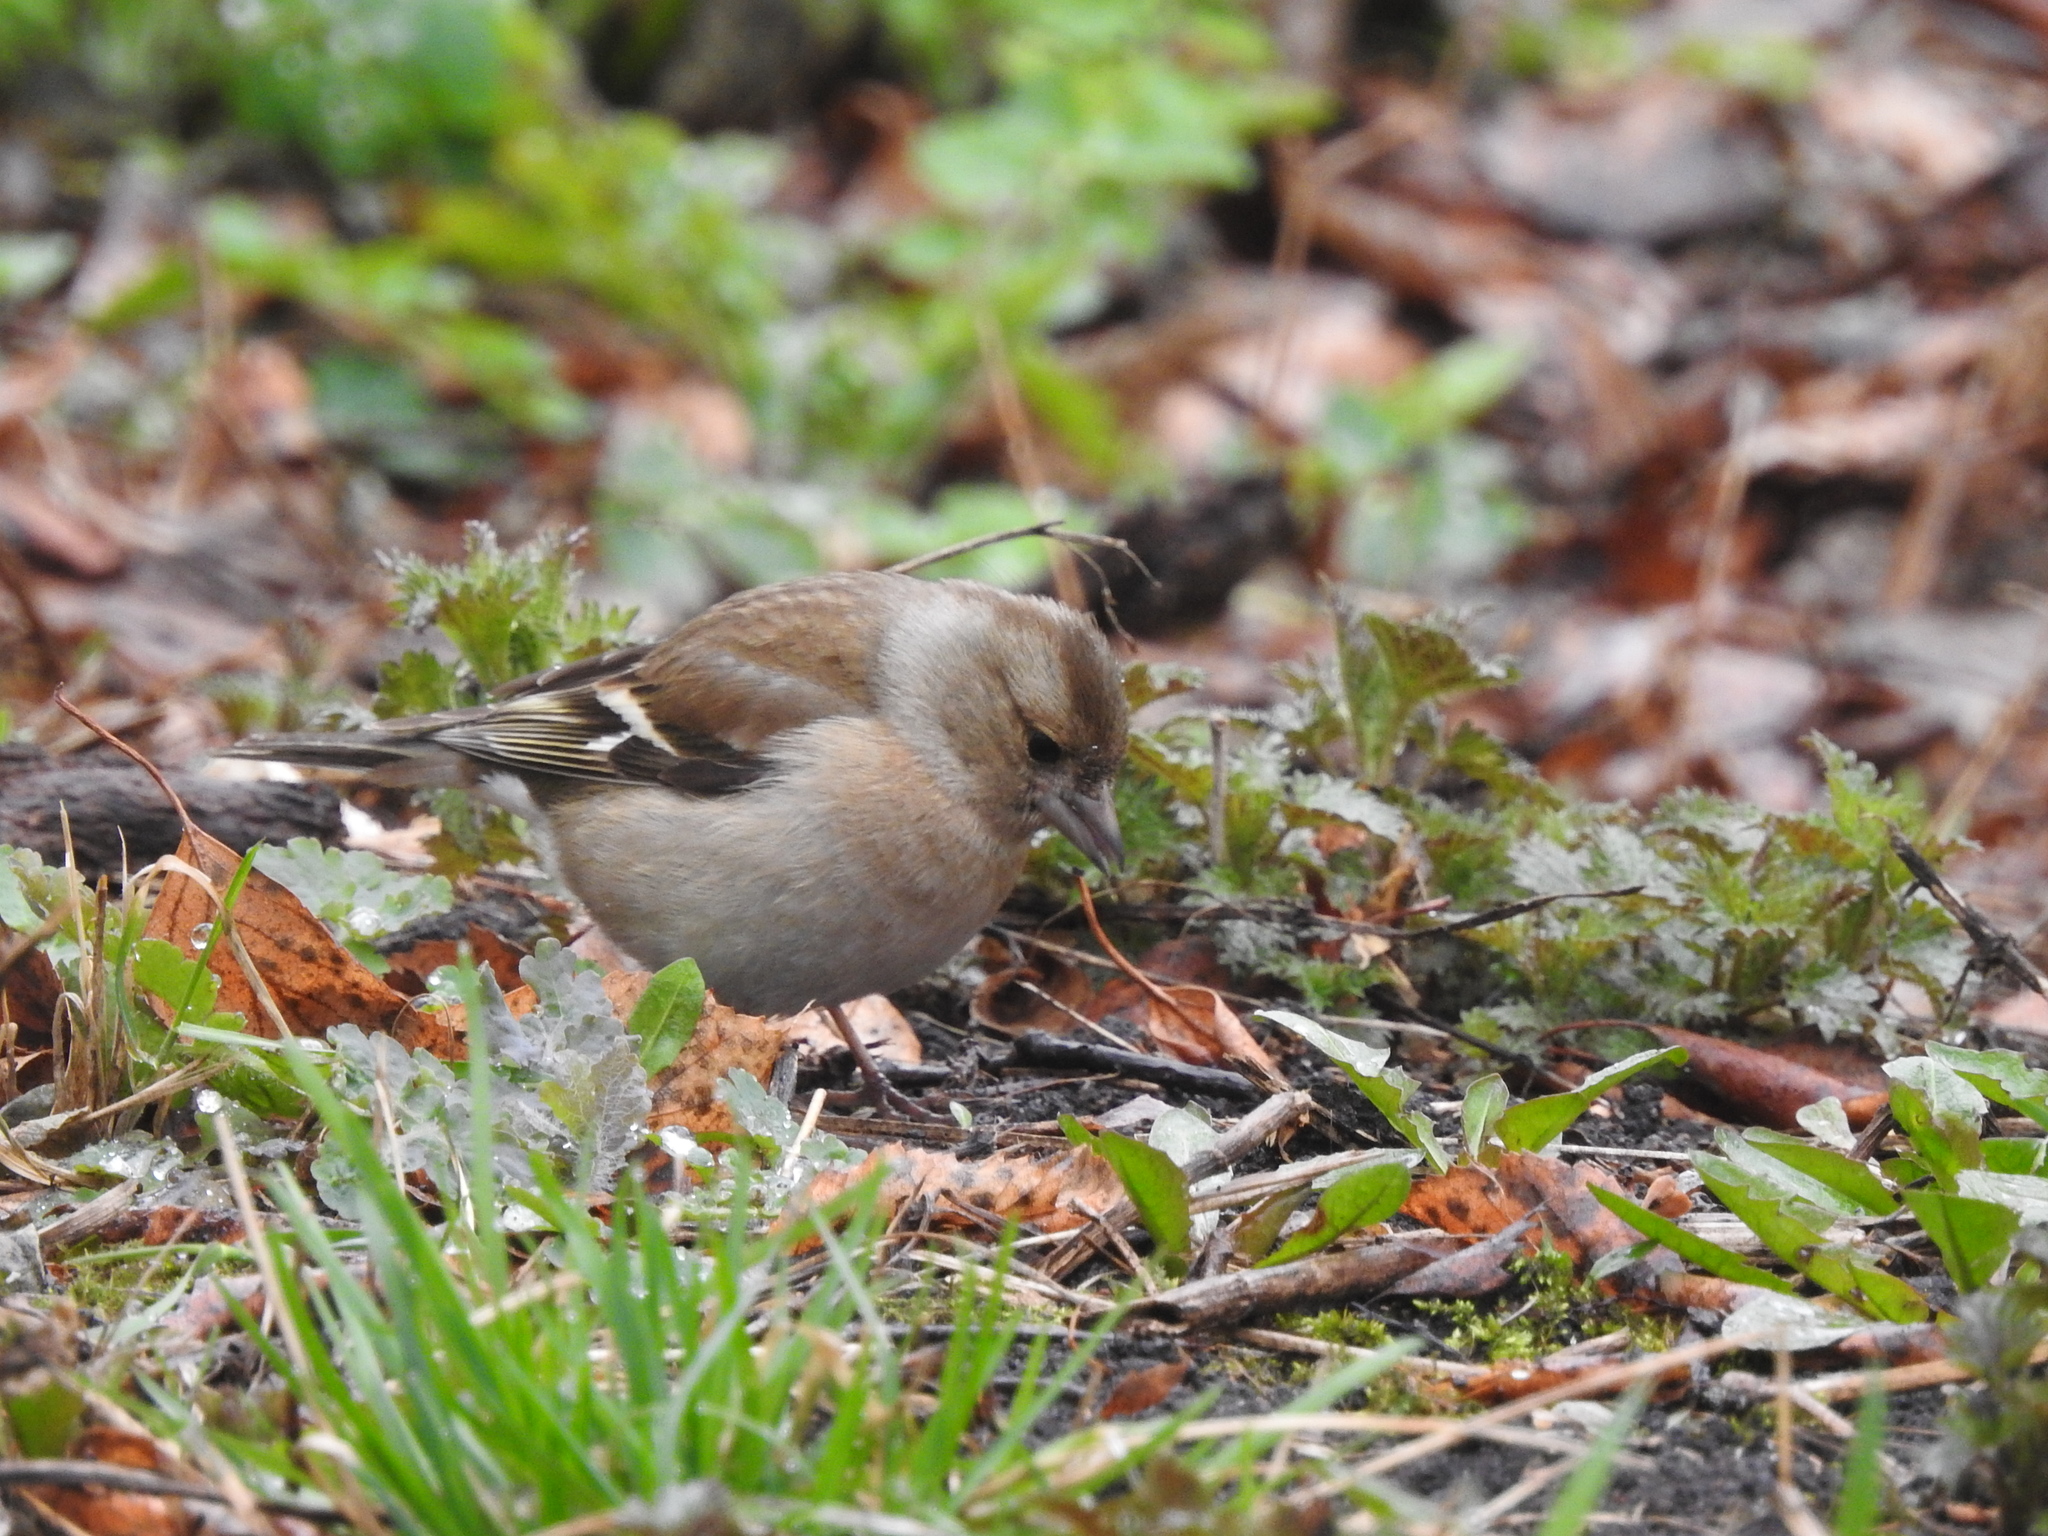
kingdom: Animalia
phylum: Chordata
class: Aves
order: Passeriformes
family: Fringillidae
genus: Fringilla
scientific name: Fringilla coelebs
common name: Common chaffinch
